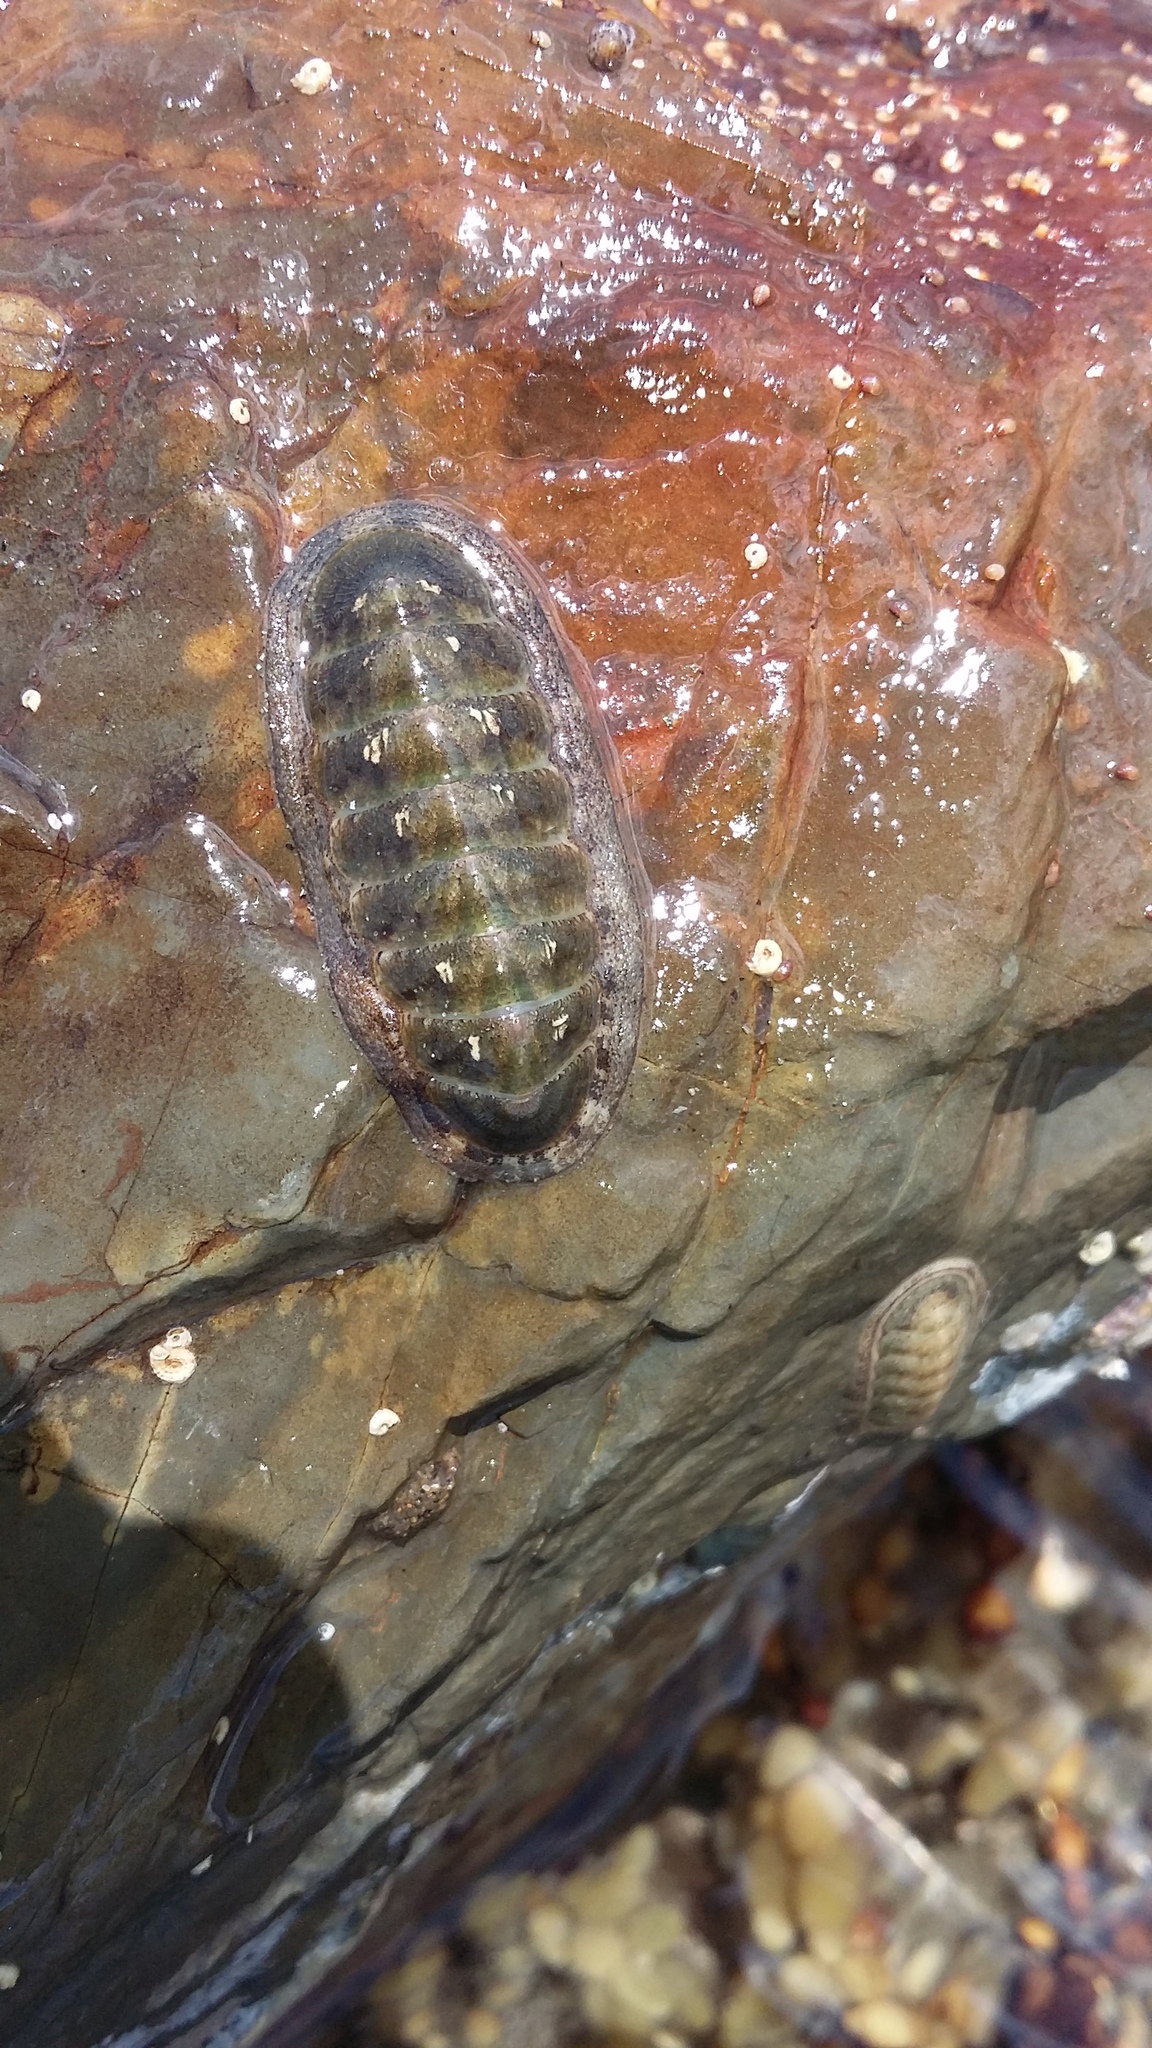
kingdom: Animalia
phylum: Mollusca
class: Polyplacophora
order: Chitonida
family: Ischnochitonidae
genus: Ischnochiton
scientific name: Ischnochiton maorianus
